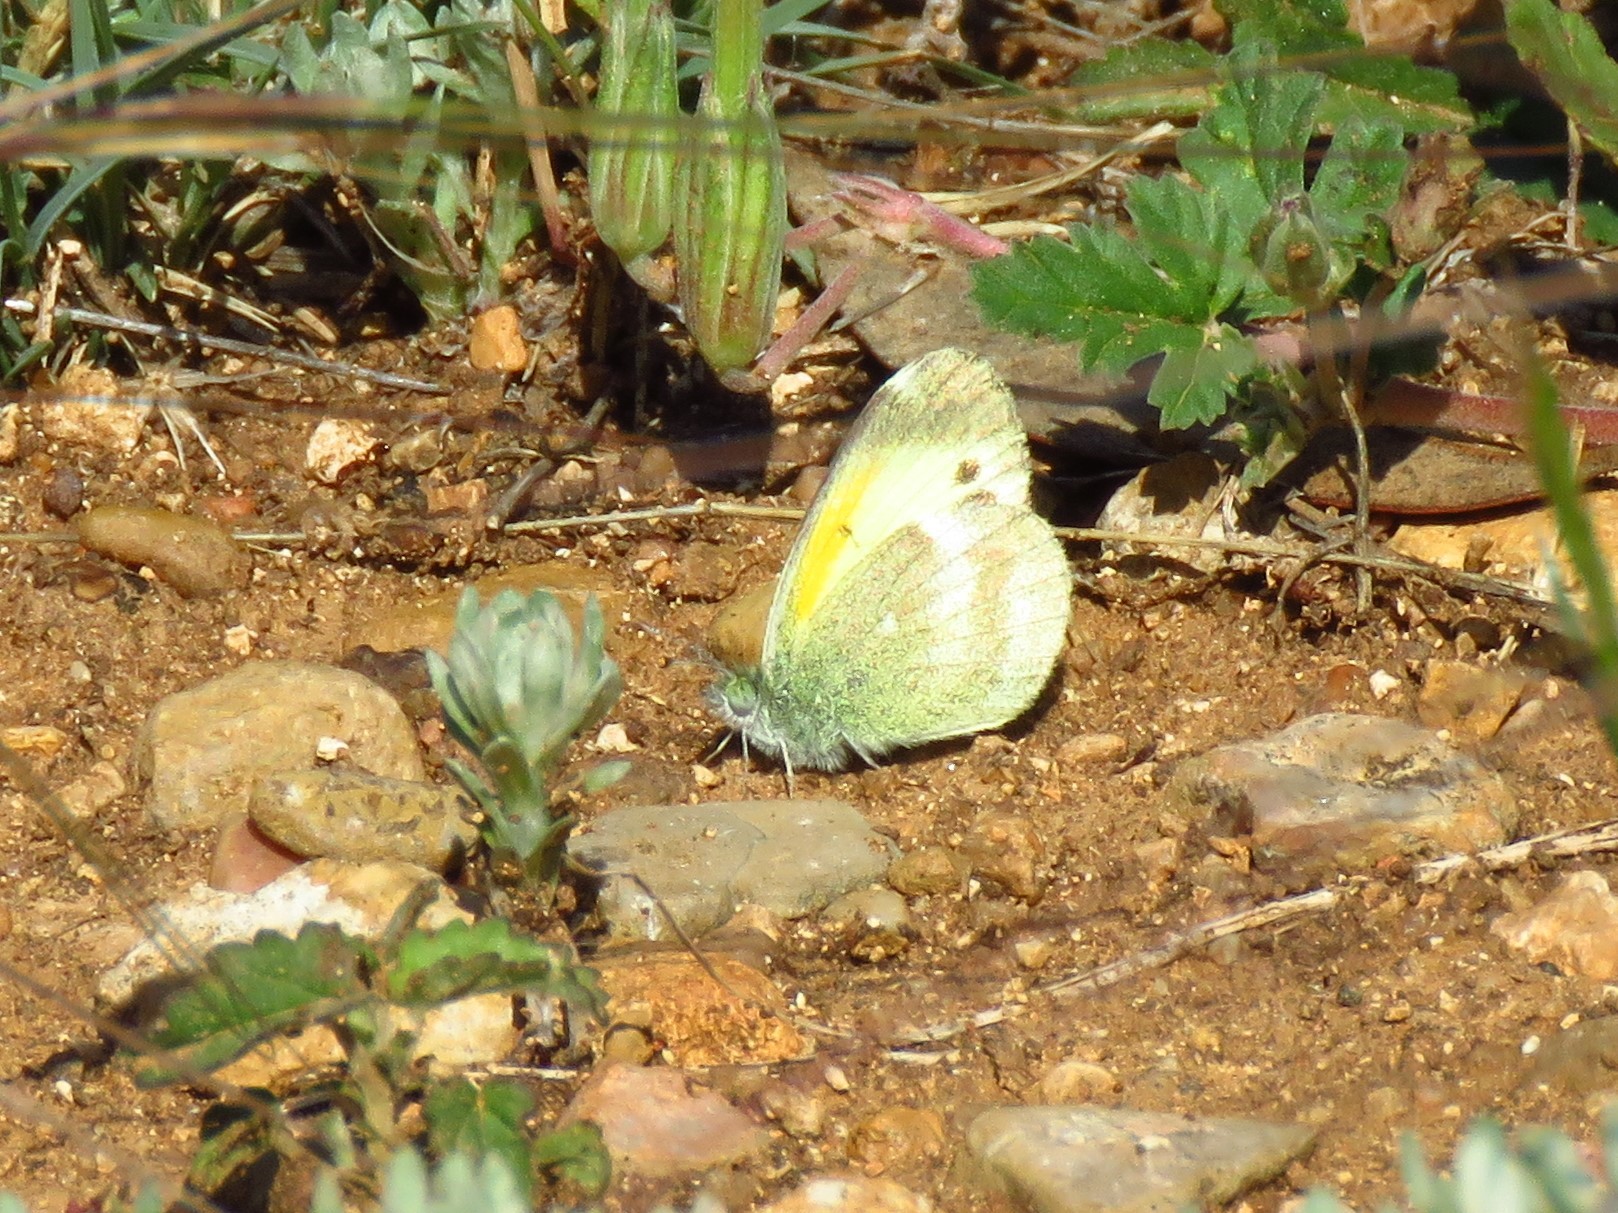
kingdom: Animalia
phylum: Arthropoda
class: Insecta
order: Lepidoptera
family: Pieridae
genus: Nathalis
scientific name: Nathalis iole
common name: Dainty sulphur
